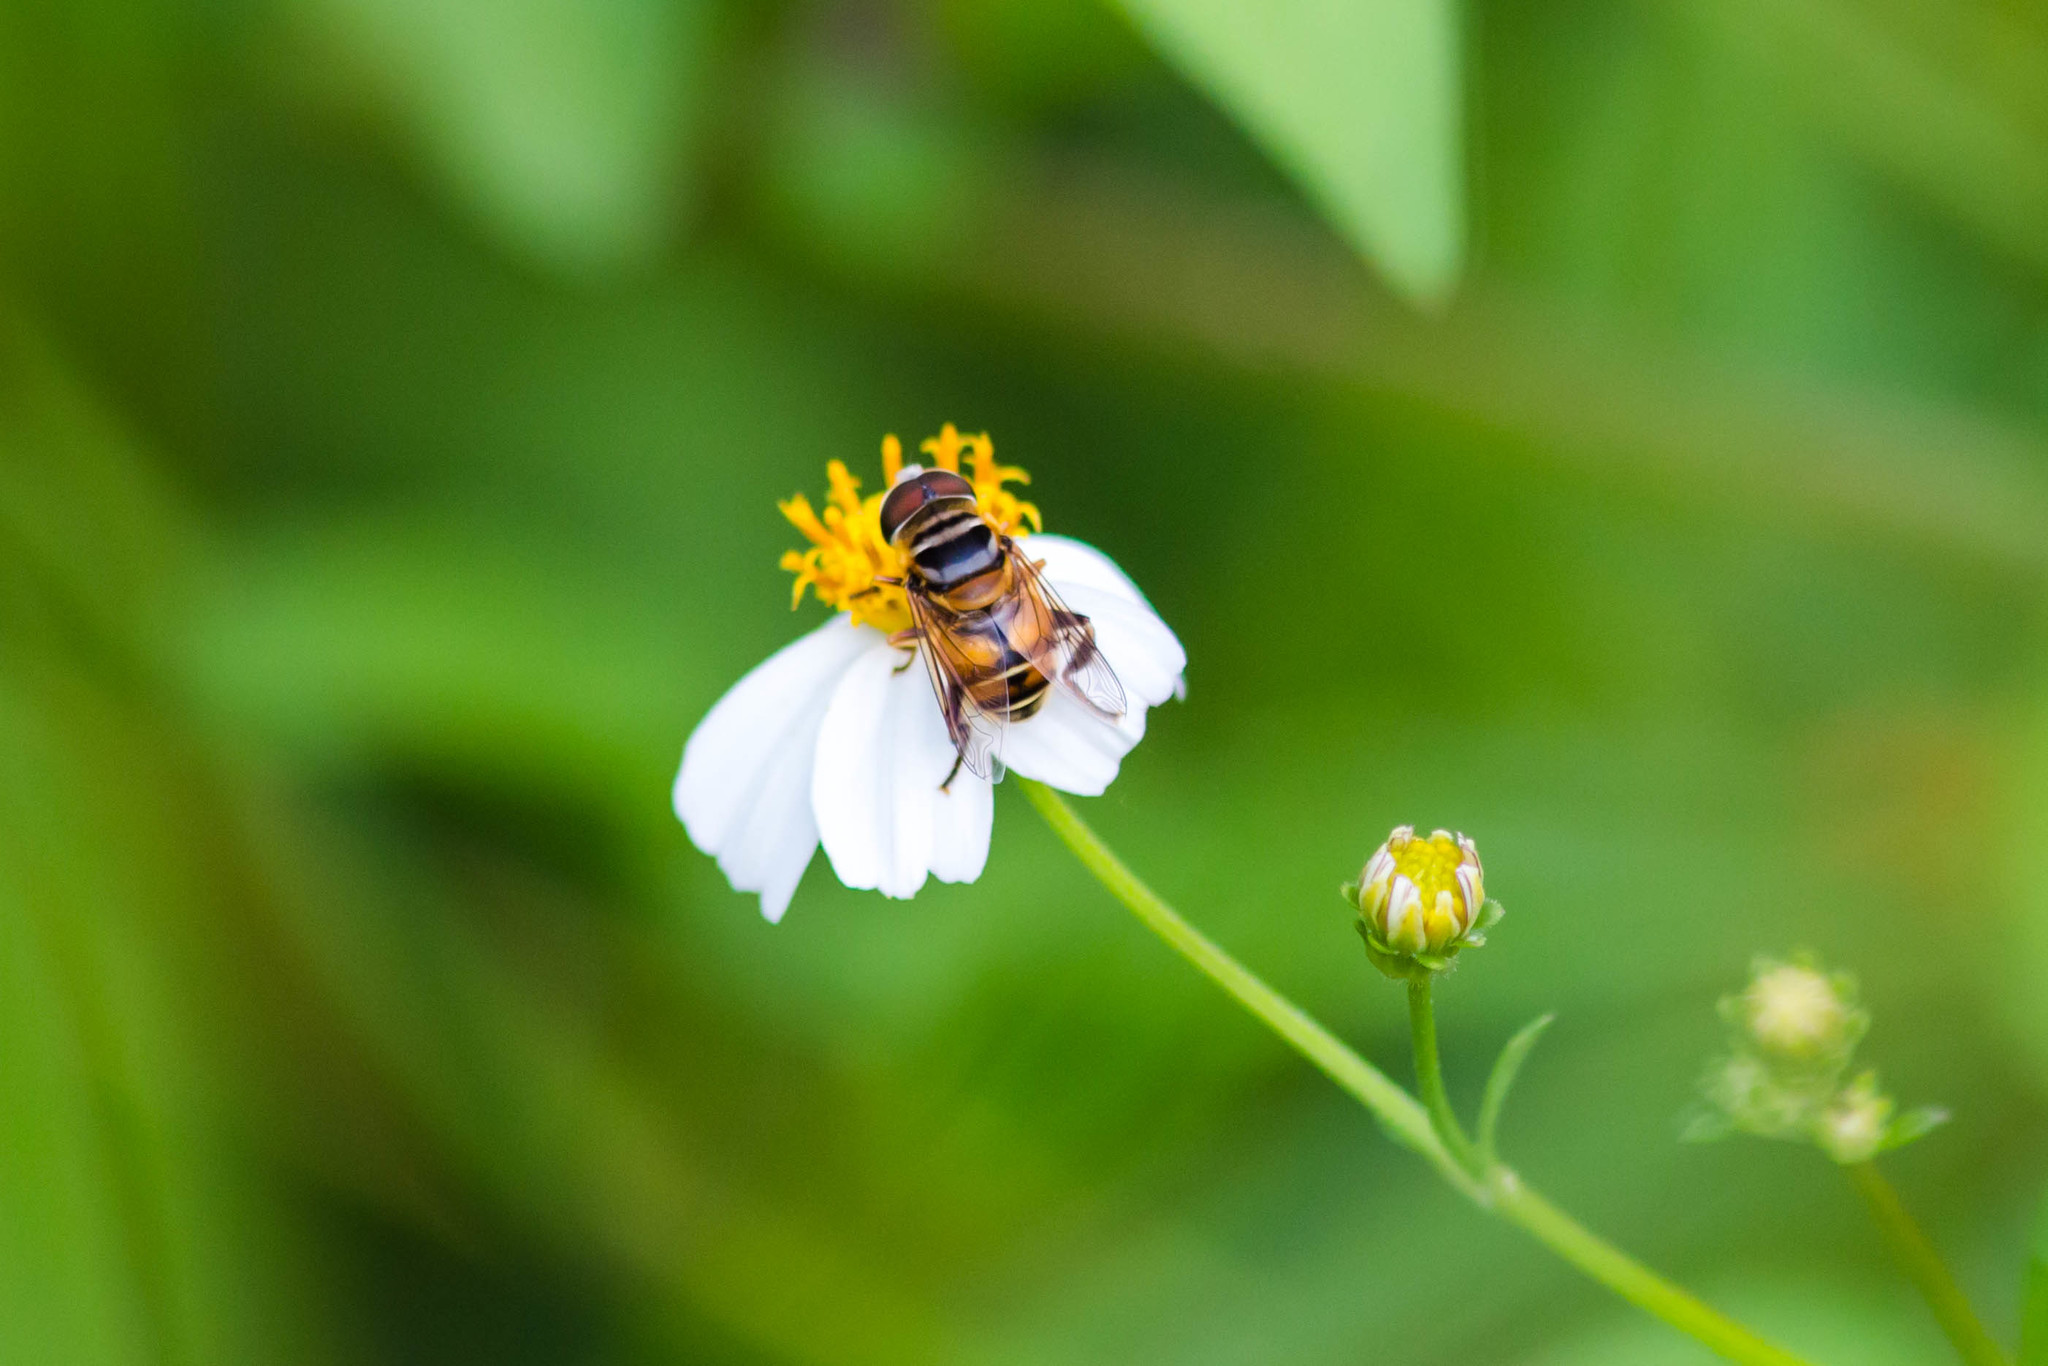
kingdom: Animalia
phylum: Arthropoda
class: Insecta
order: Diptera
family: Syrphidae
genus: Palpada
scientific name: Palpada vinetorum
